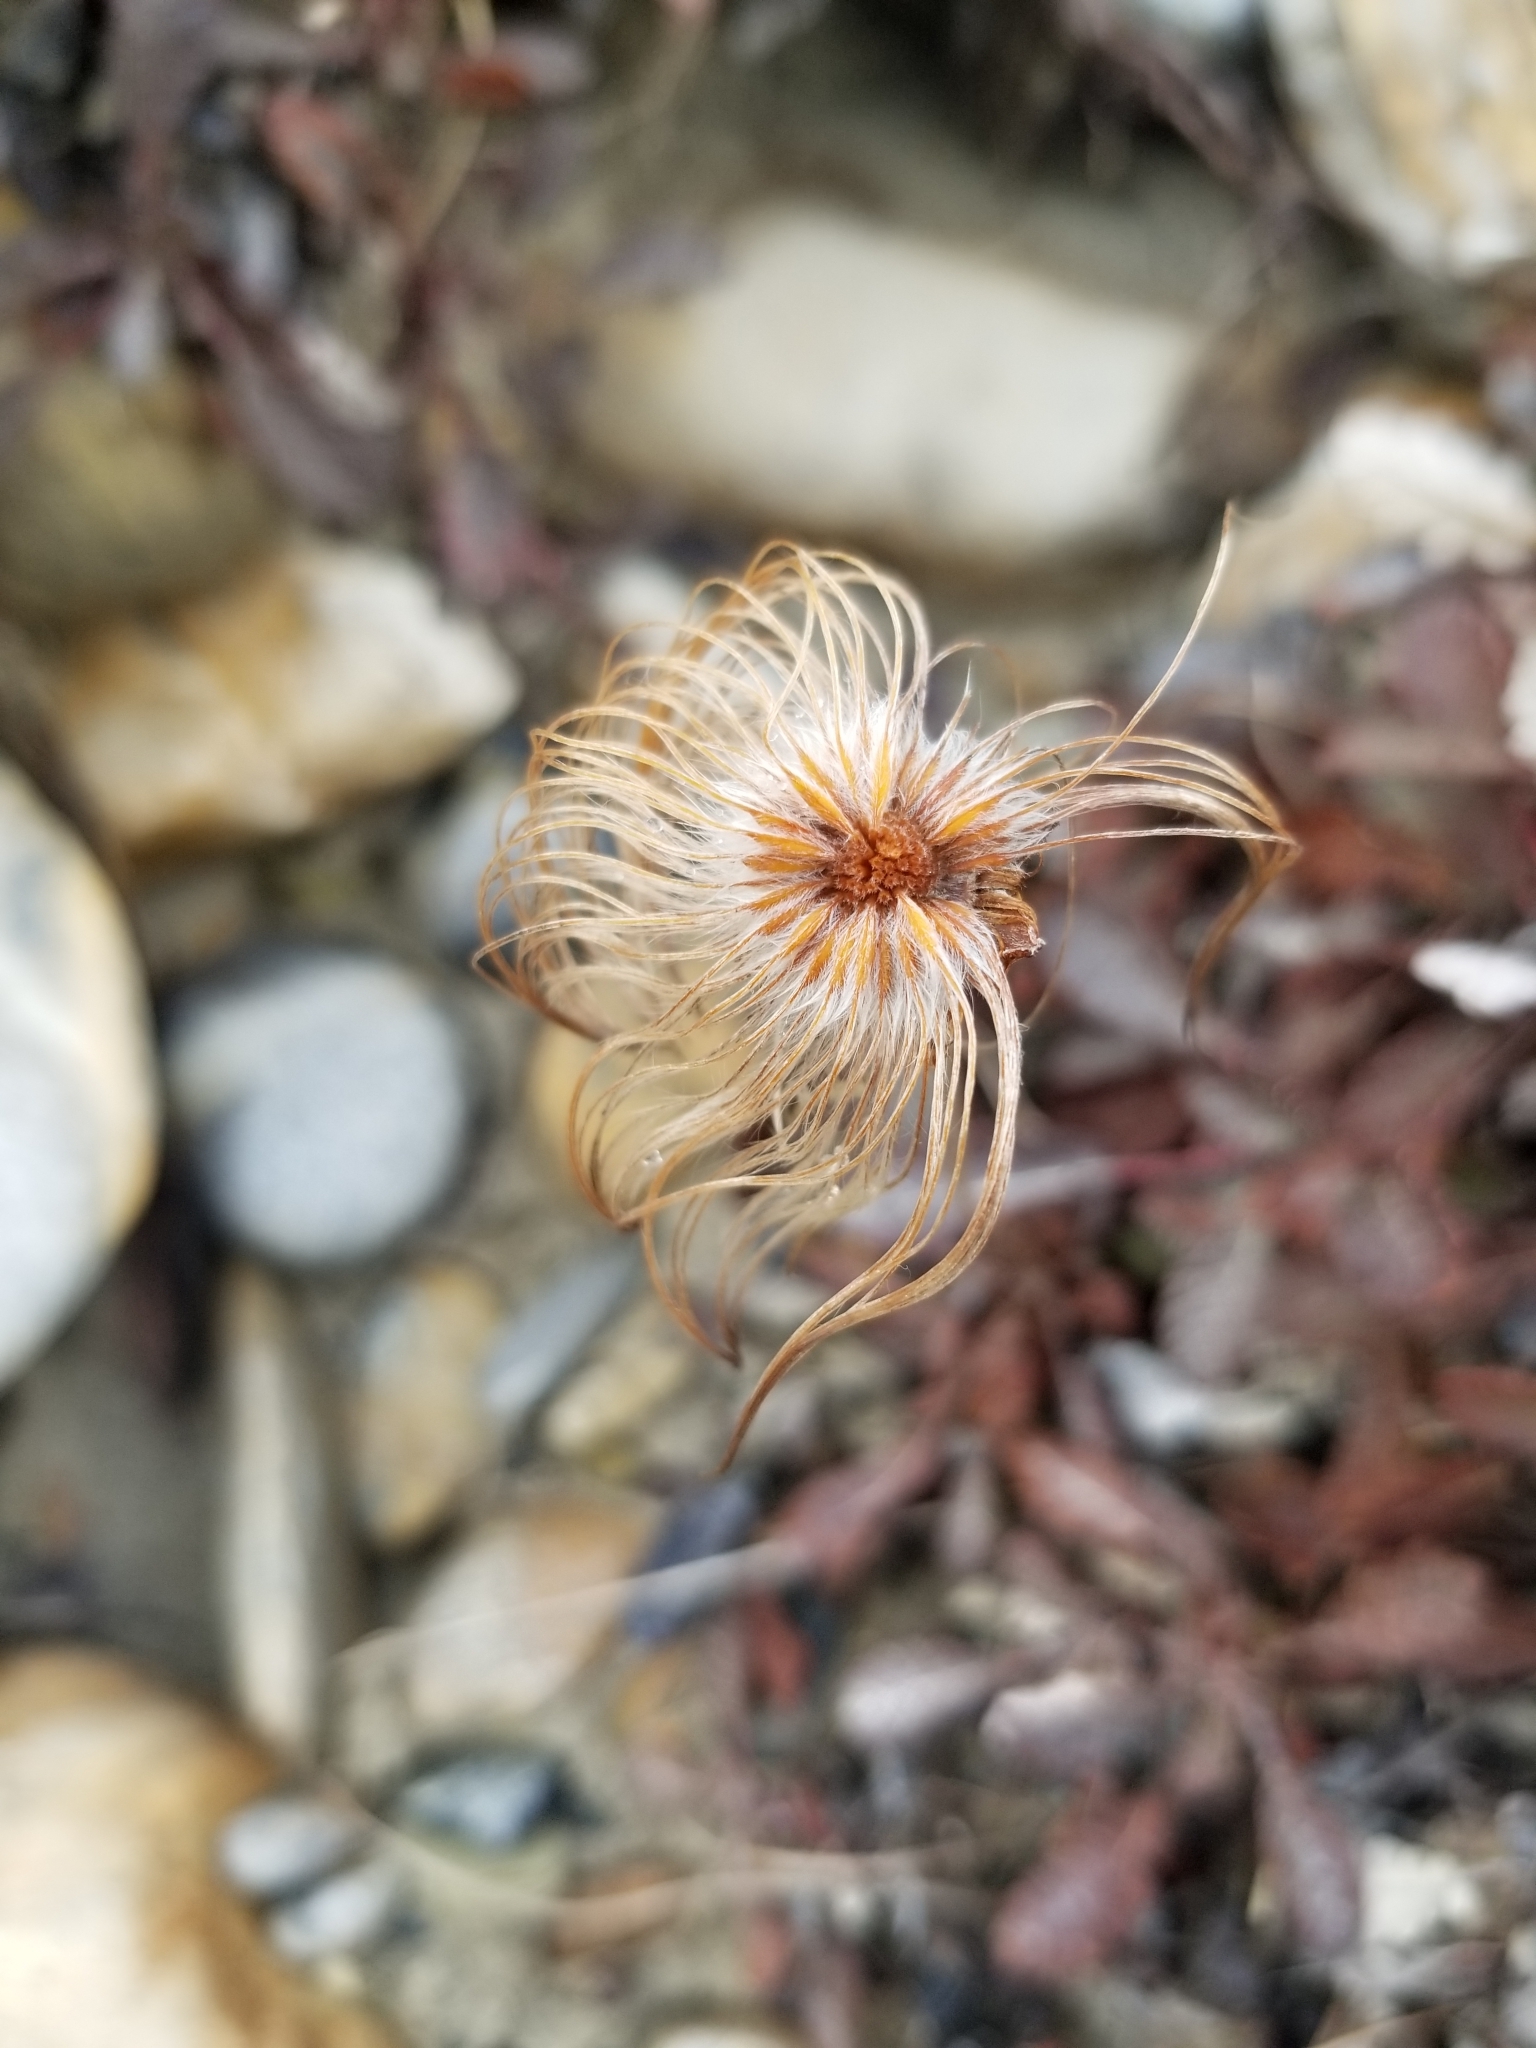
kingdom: Plantae
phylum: Tracheophyta
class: Magnoliopsida
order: Rosales
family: Rosaceae
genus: Dryas
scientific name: Dryas drummondii
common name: Drummond's dryad
